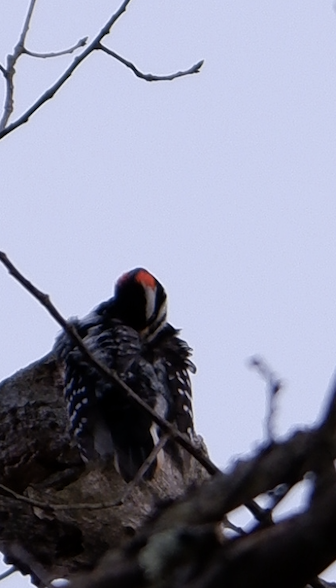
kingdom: Animalia
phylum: Chordata
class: Aves
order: Piciformes
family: Picidae
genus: Leuconotopicus
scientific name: Leuconotopicus villosus
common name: Hairy woodpecker
